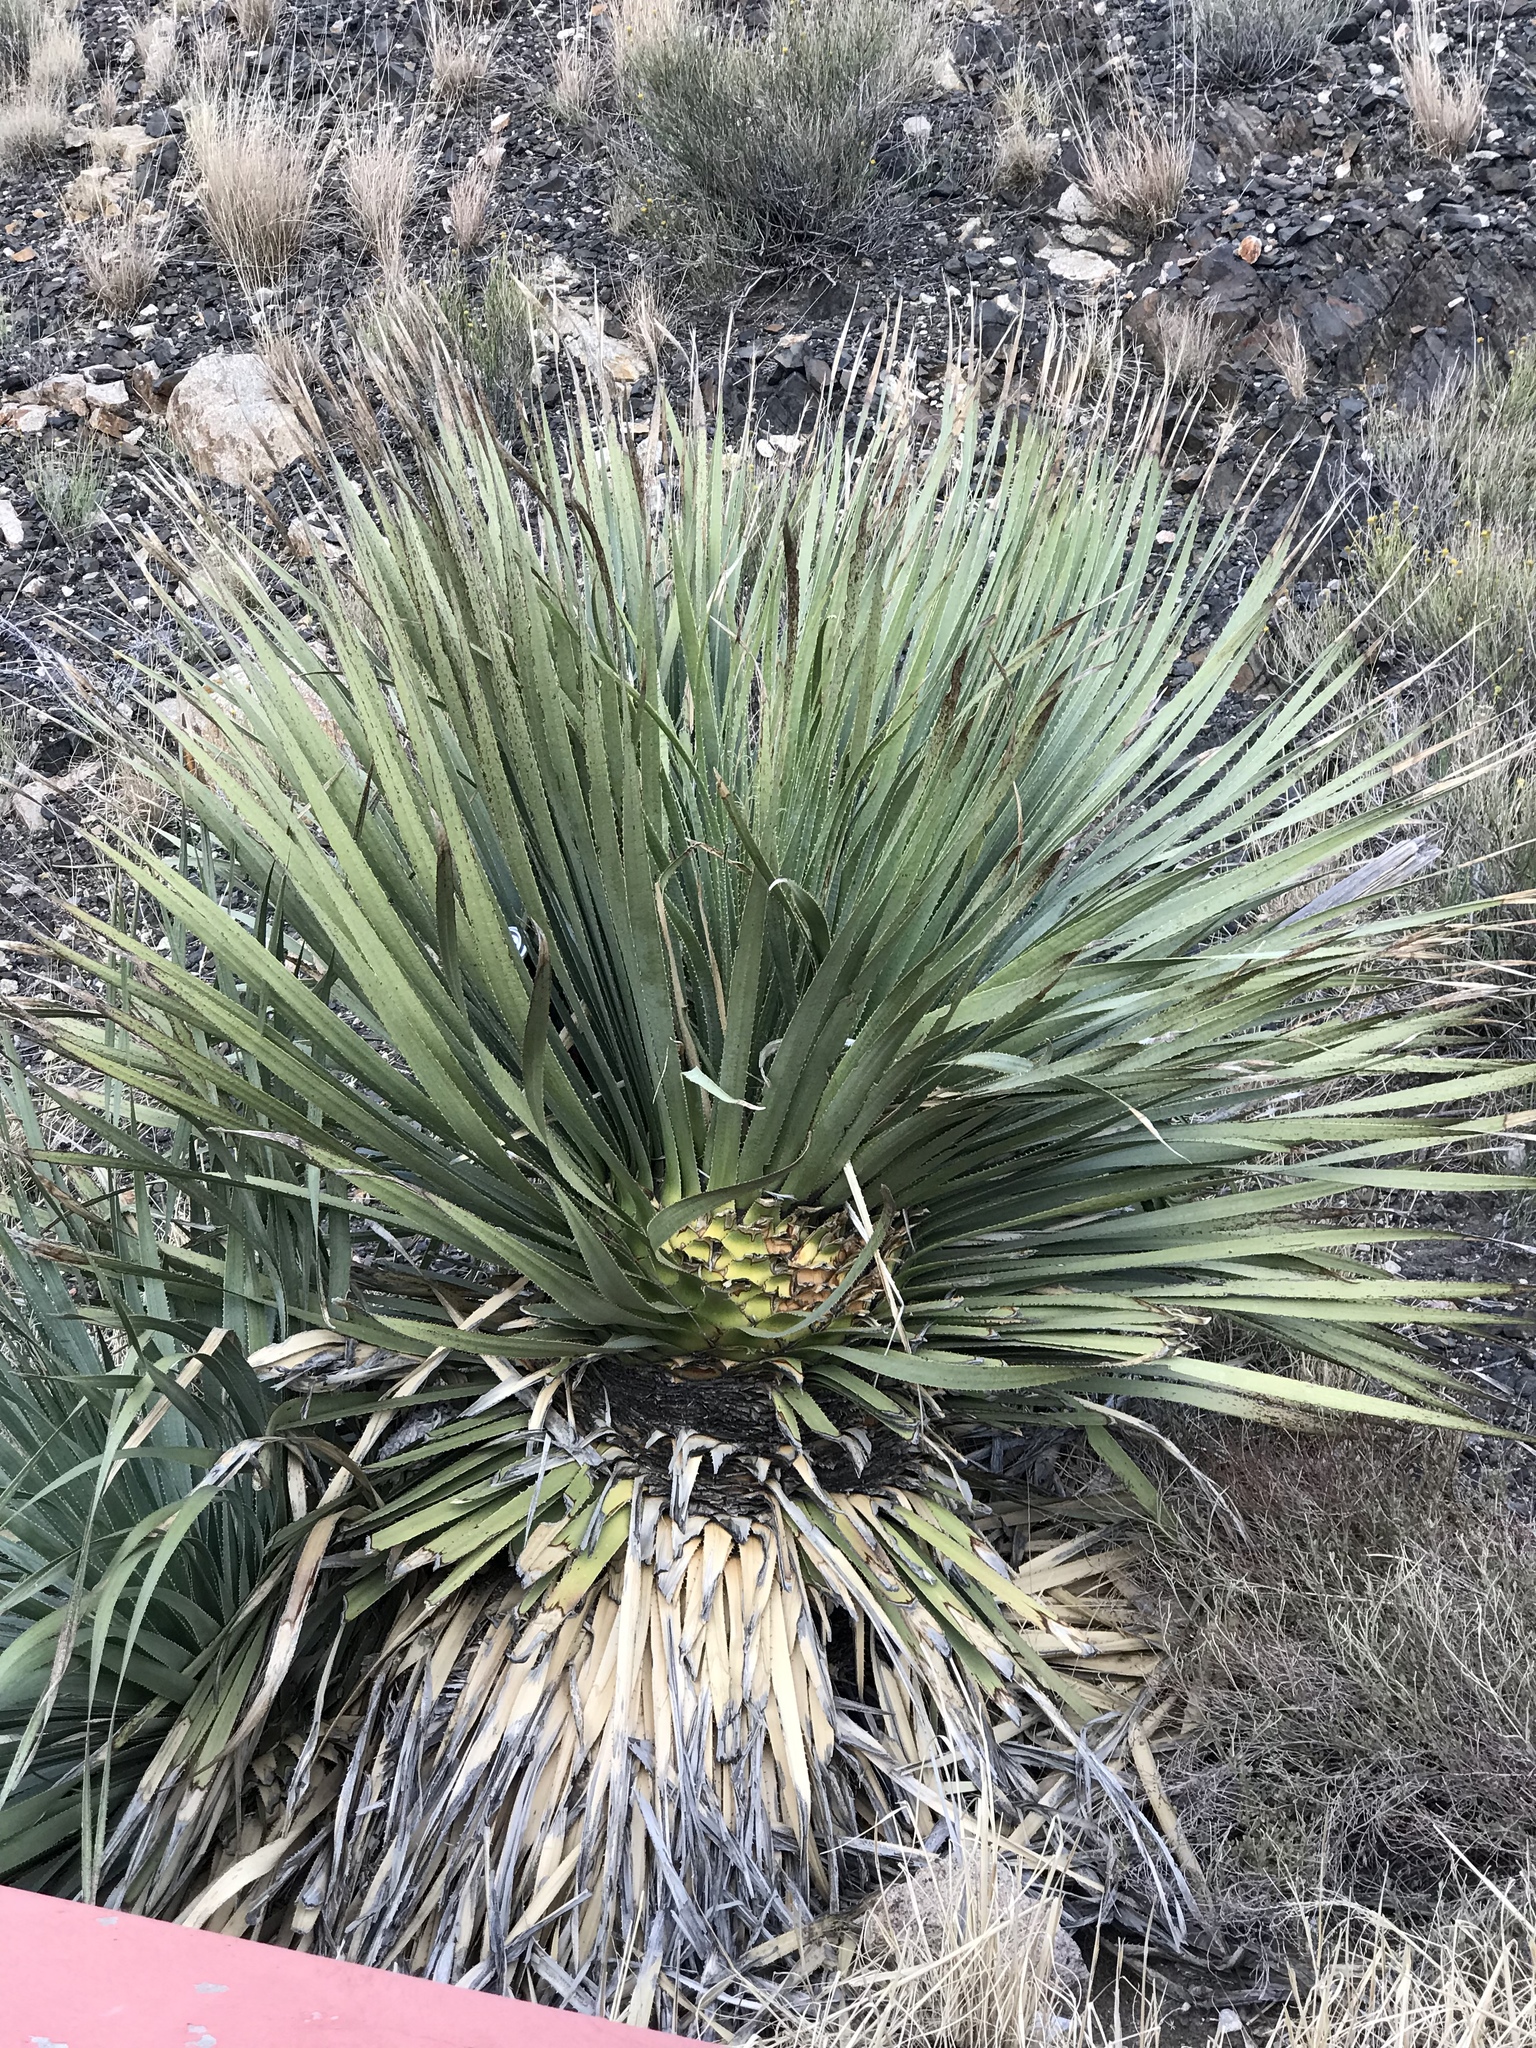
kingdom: Plantae
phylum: Tracheophyta
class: Liliopsida
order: Asparagales
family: Asparagaceae
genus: Dasylirion
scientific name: Dasylirion wheeleri
